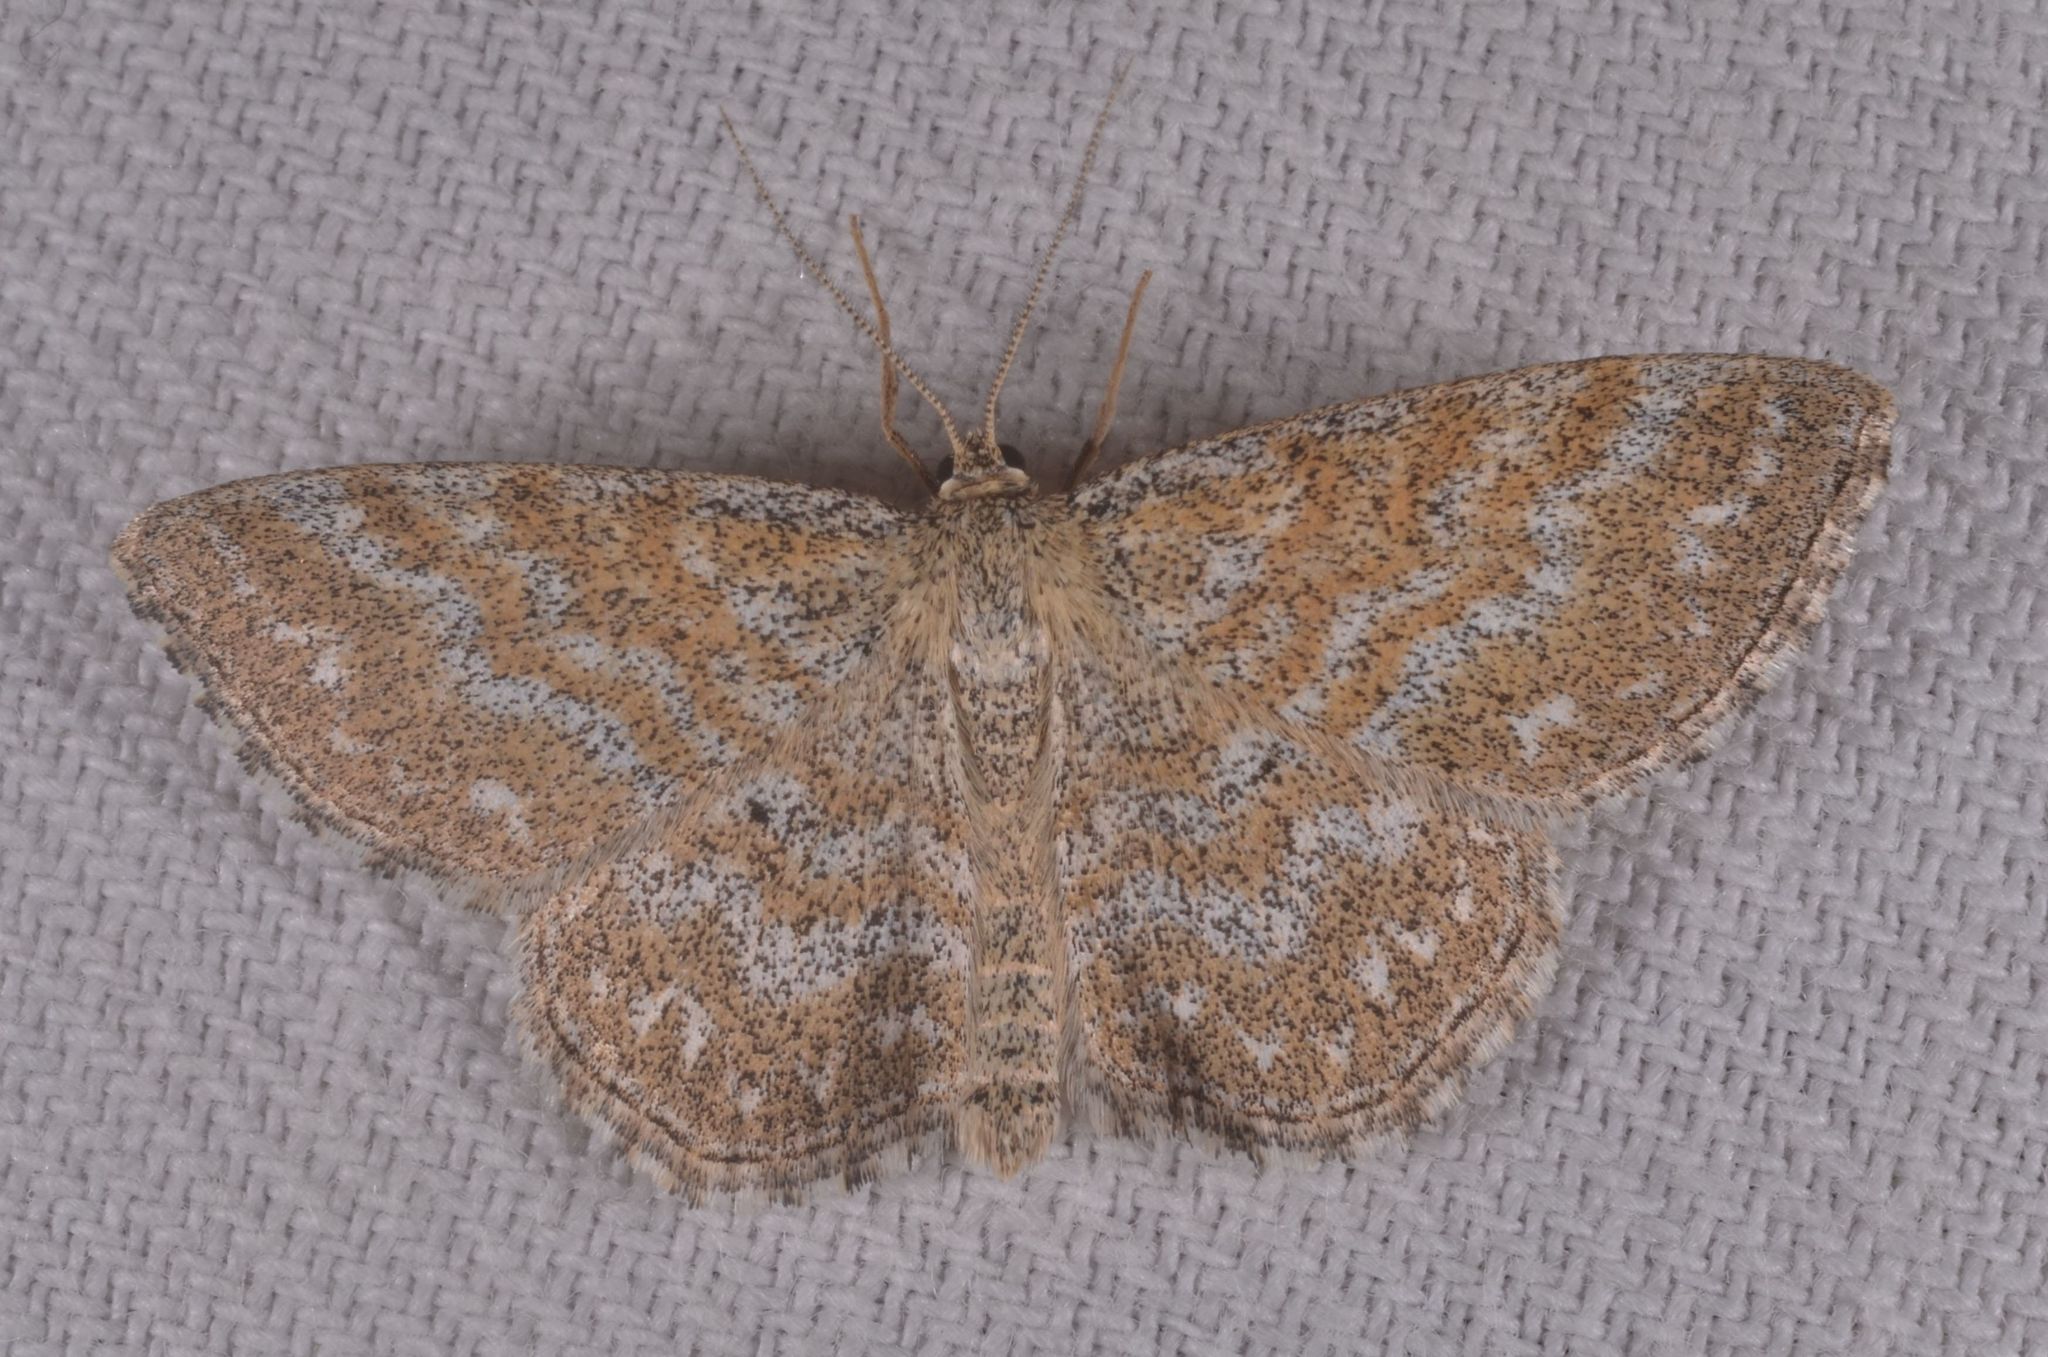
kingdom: Animalia
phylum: Arthropoda
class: Insecta
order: Lepidoptera
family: Geometridae
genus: Scopula
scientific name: Scopula immorata
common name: Lewes wave
